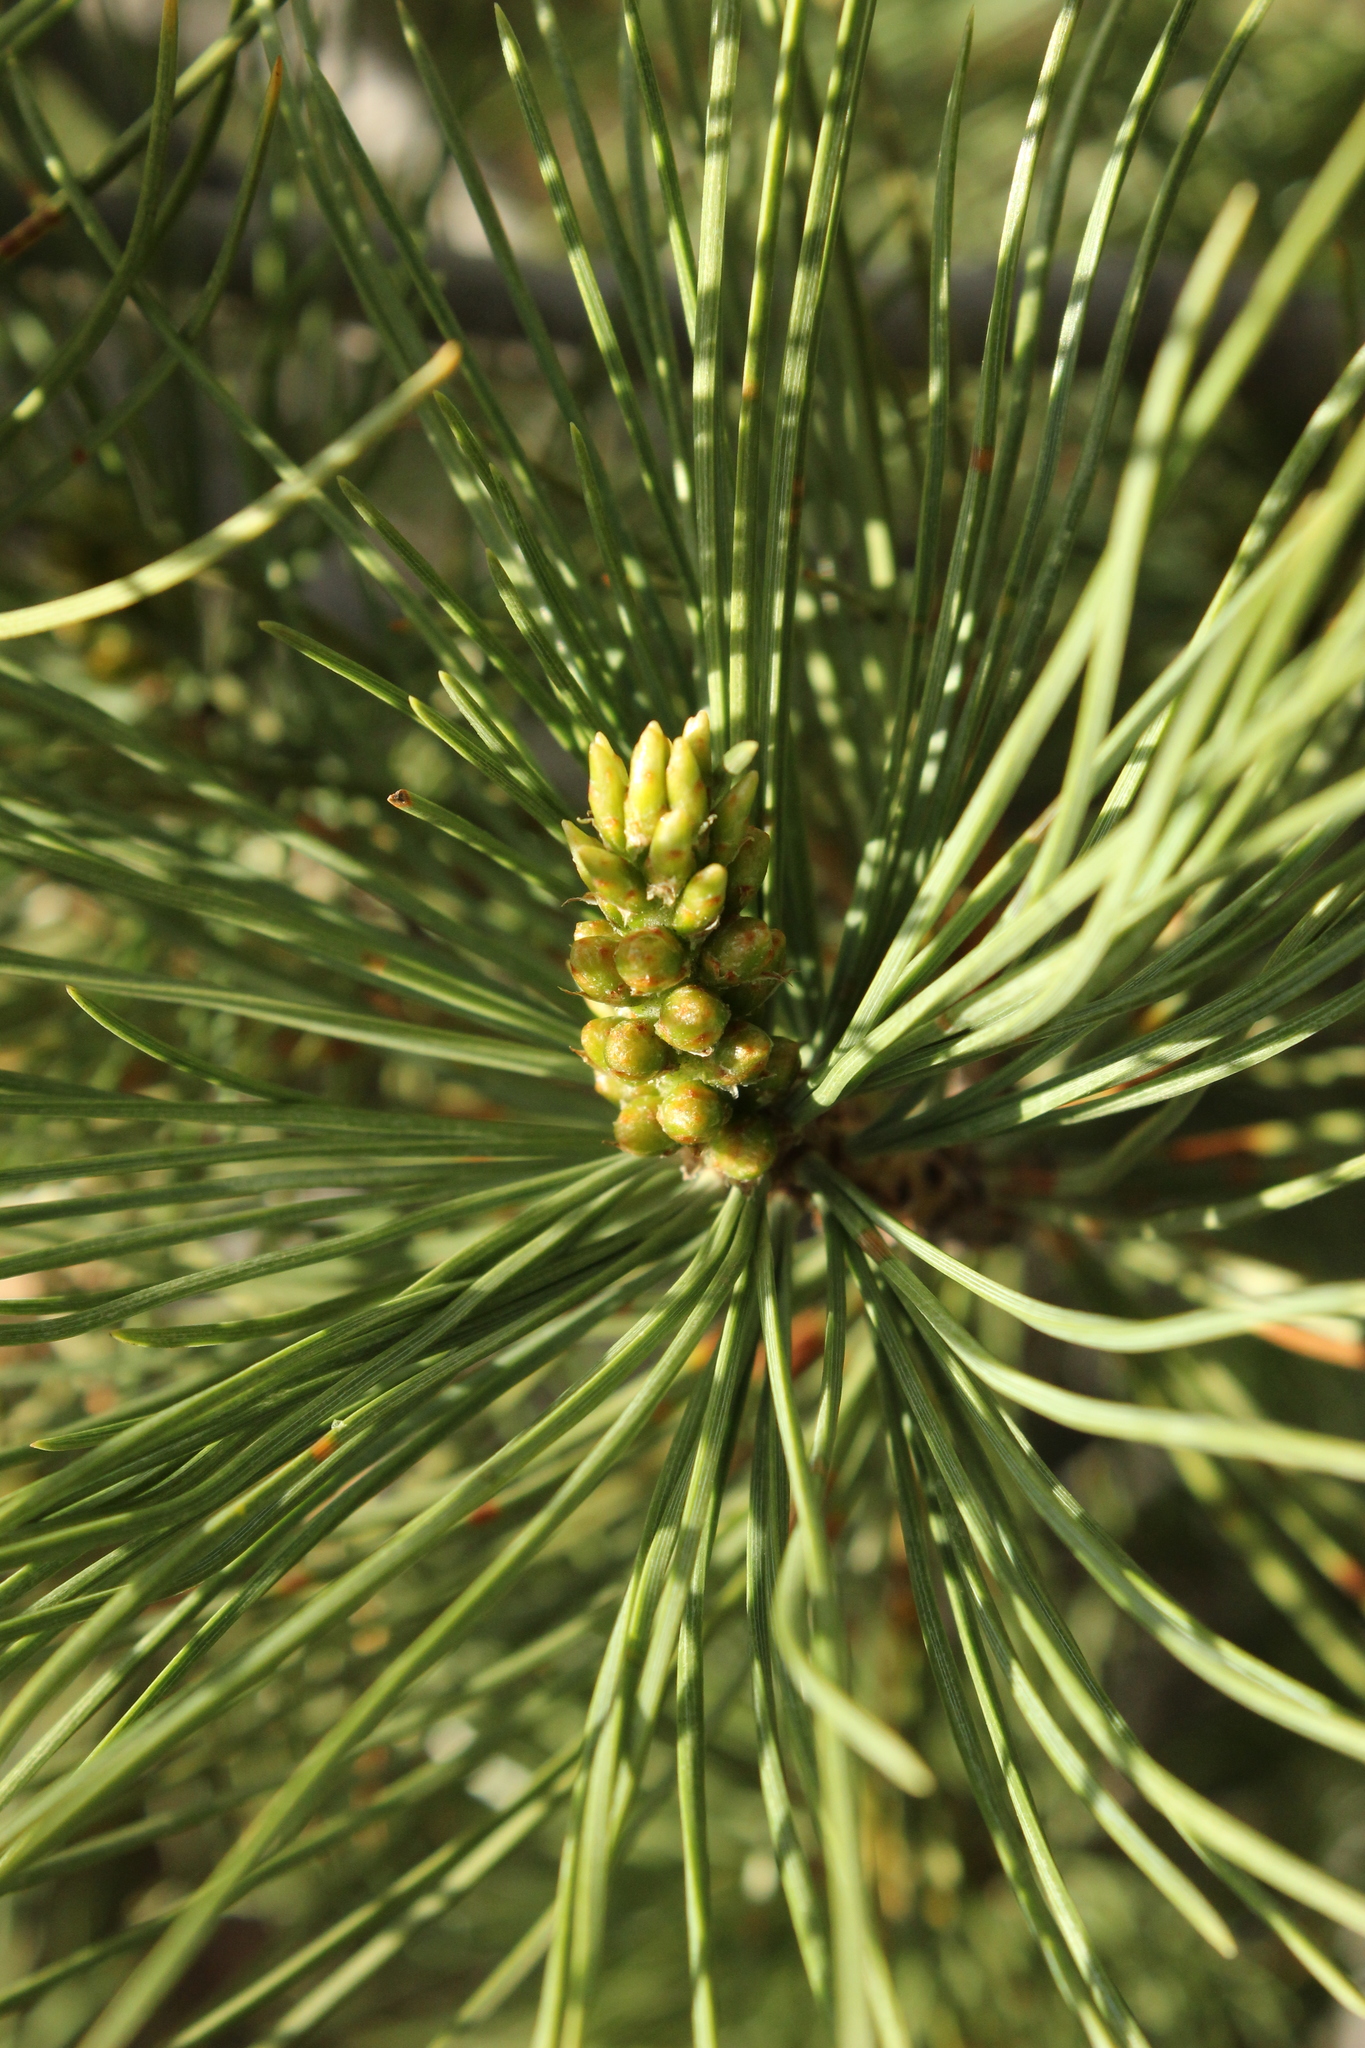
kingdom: Plantae
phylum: Tracheophyta
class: Pinopsida
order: Pinales
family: Pinaceae
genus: Pinus
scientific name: Pinus flexilis
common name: Limber pine
